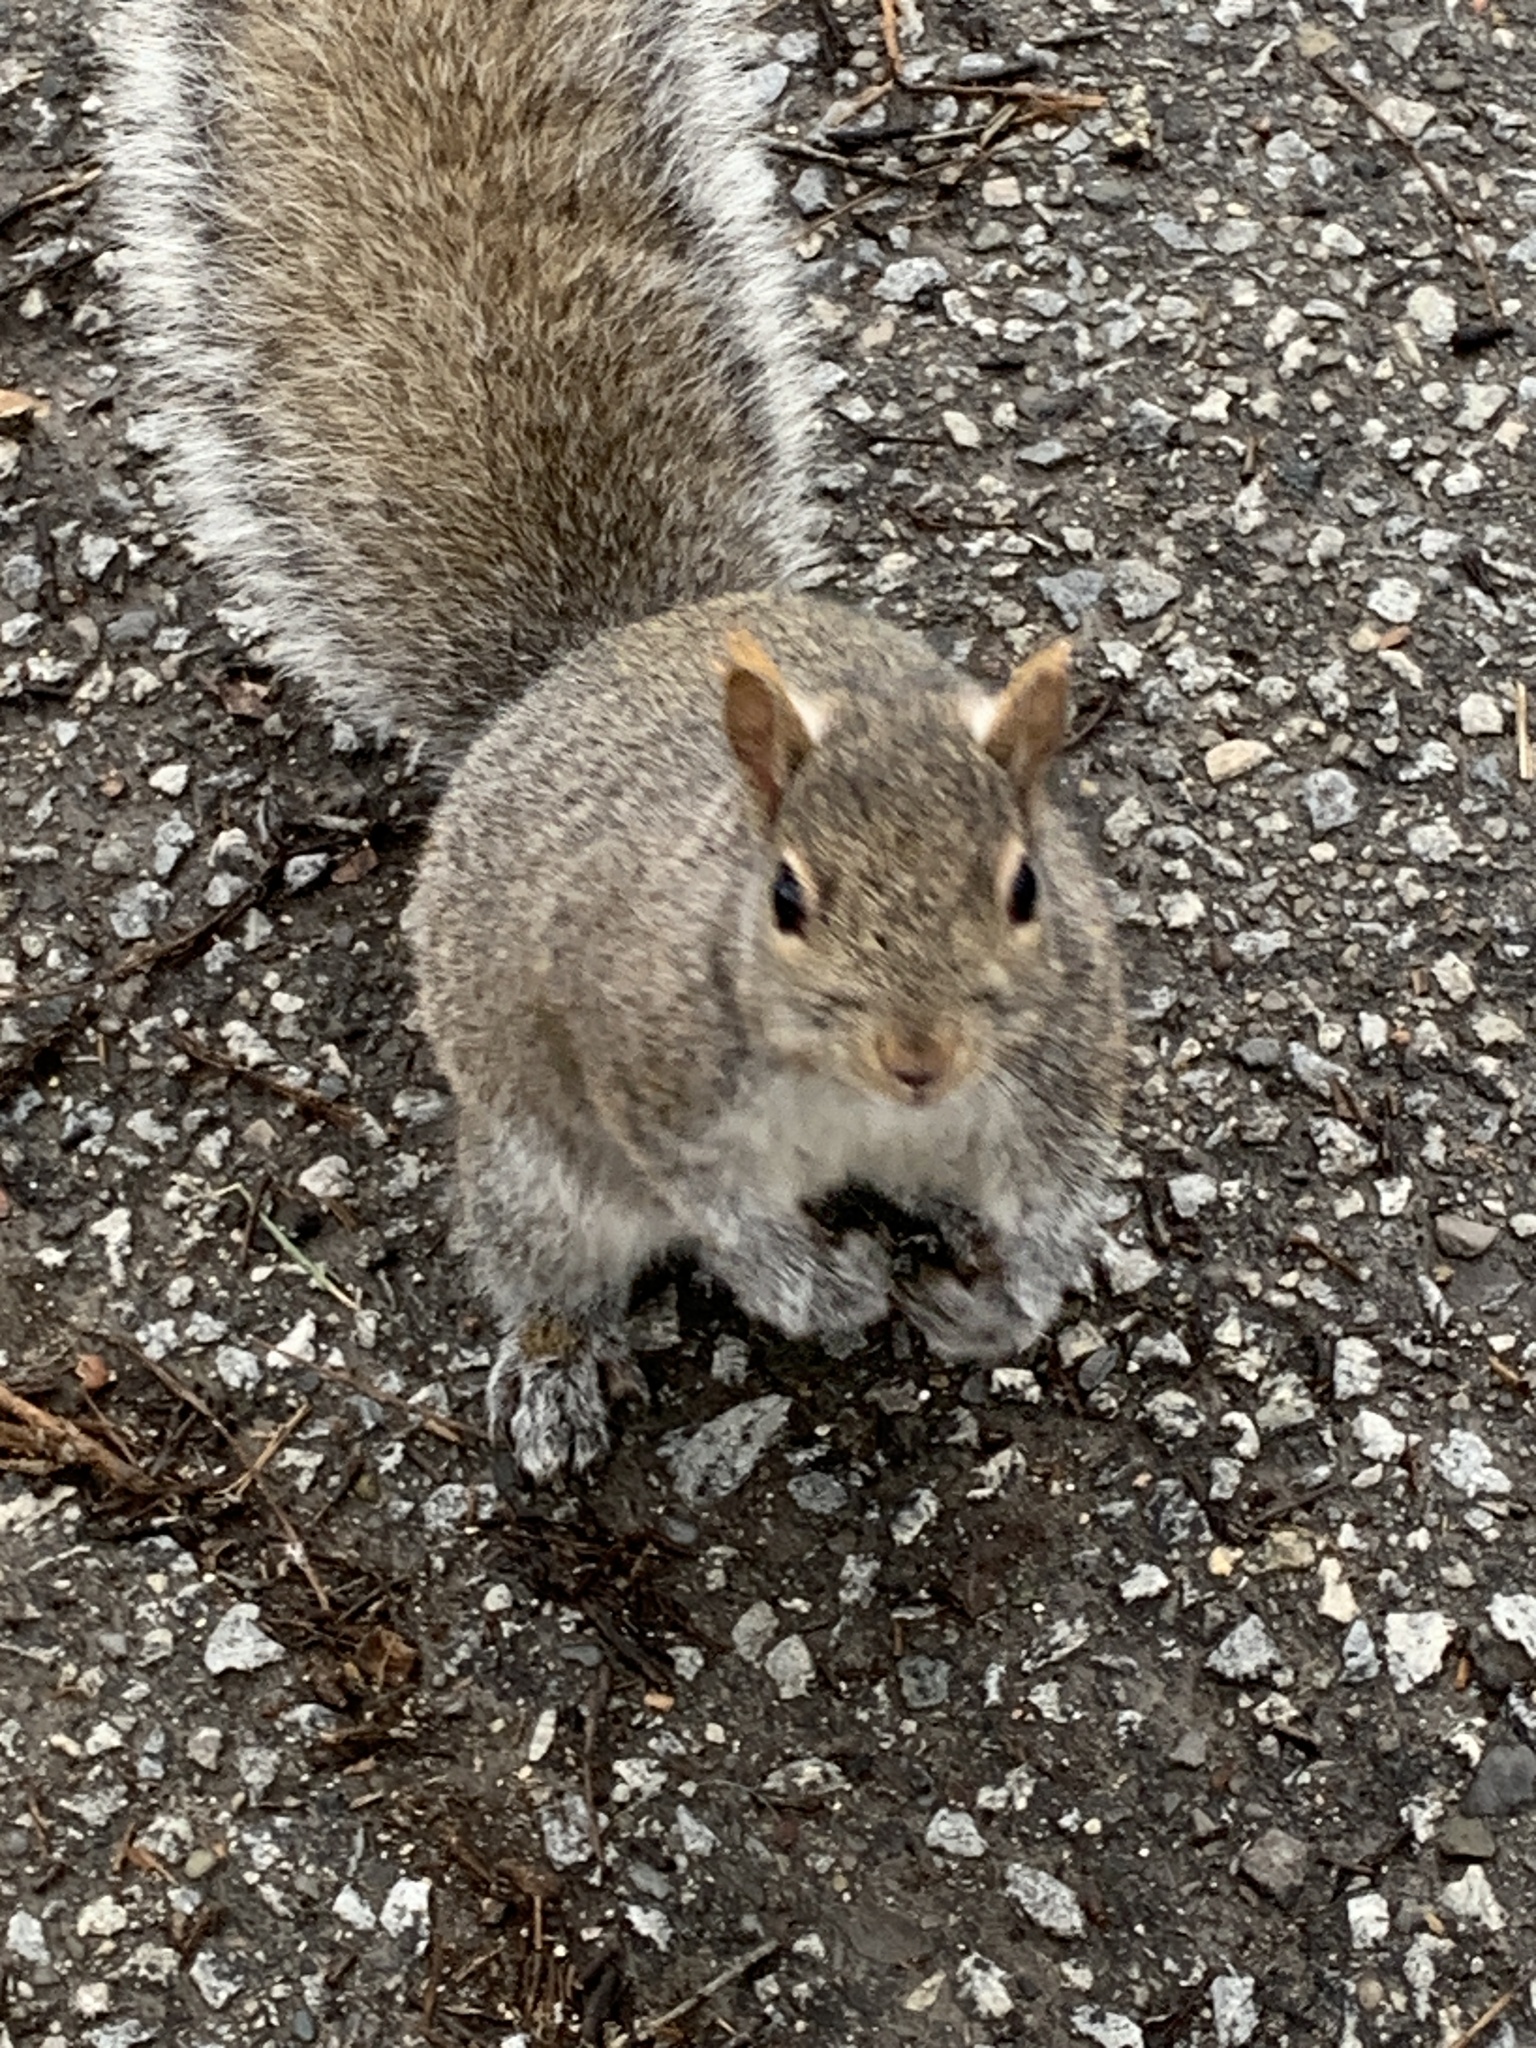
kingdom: Animalia
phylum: Chordata
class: Mammalia
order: Rodentia
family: Sciuridae
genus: Sciurus
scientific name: Sciurus carolinensis
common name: Eastern gray squirrel
